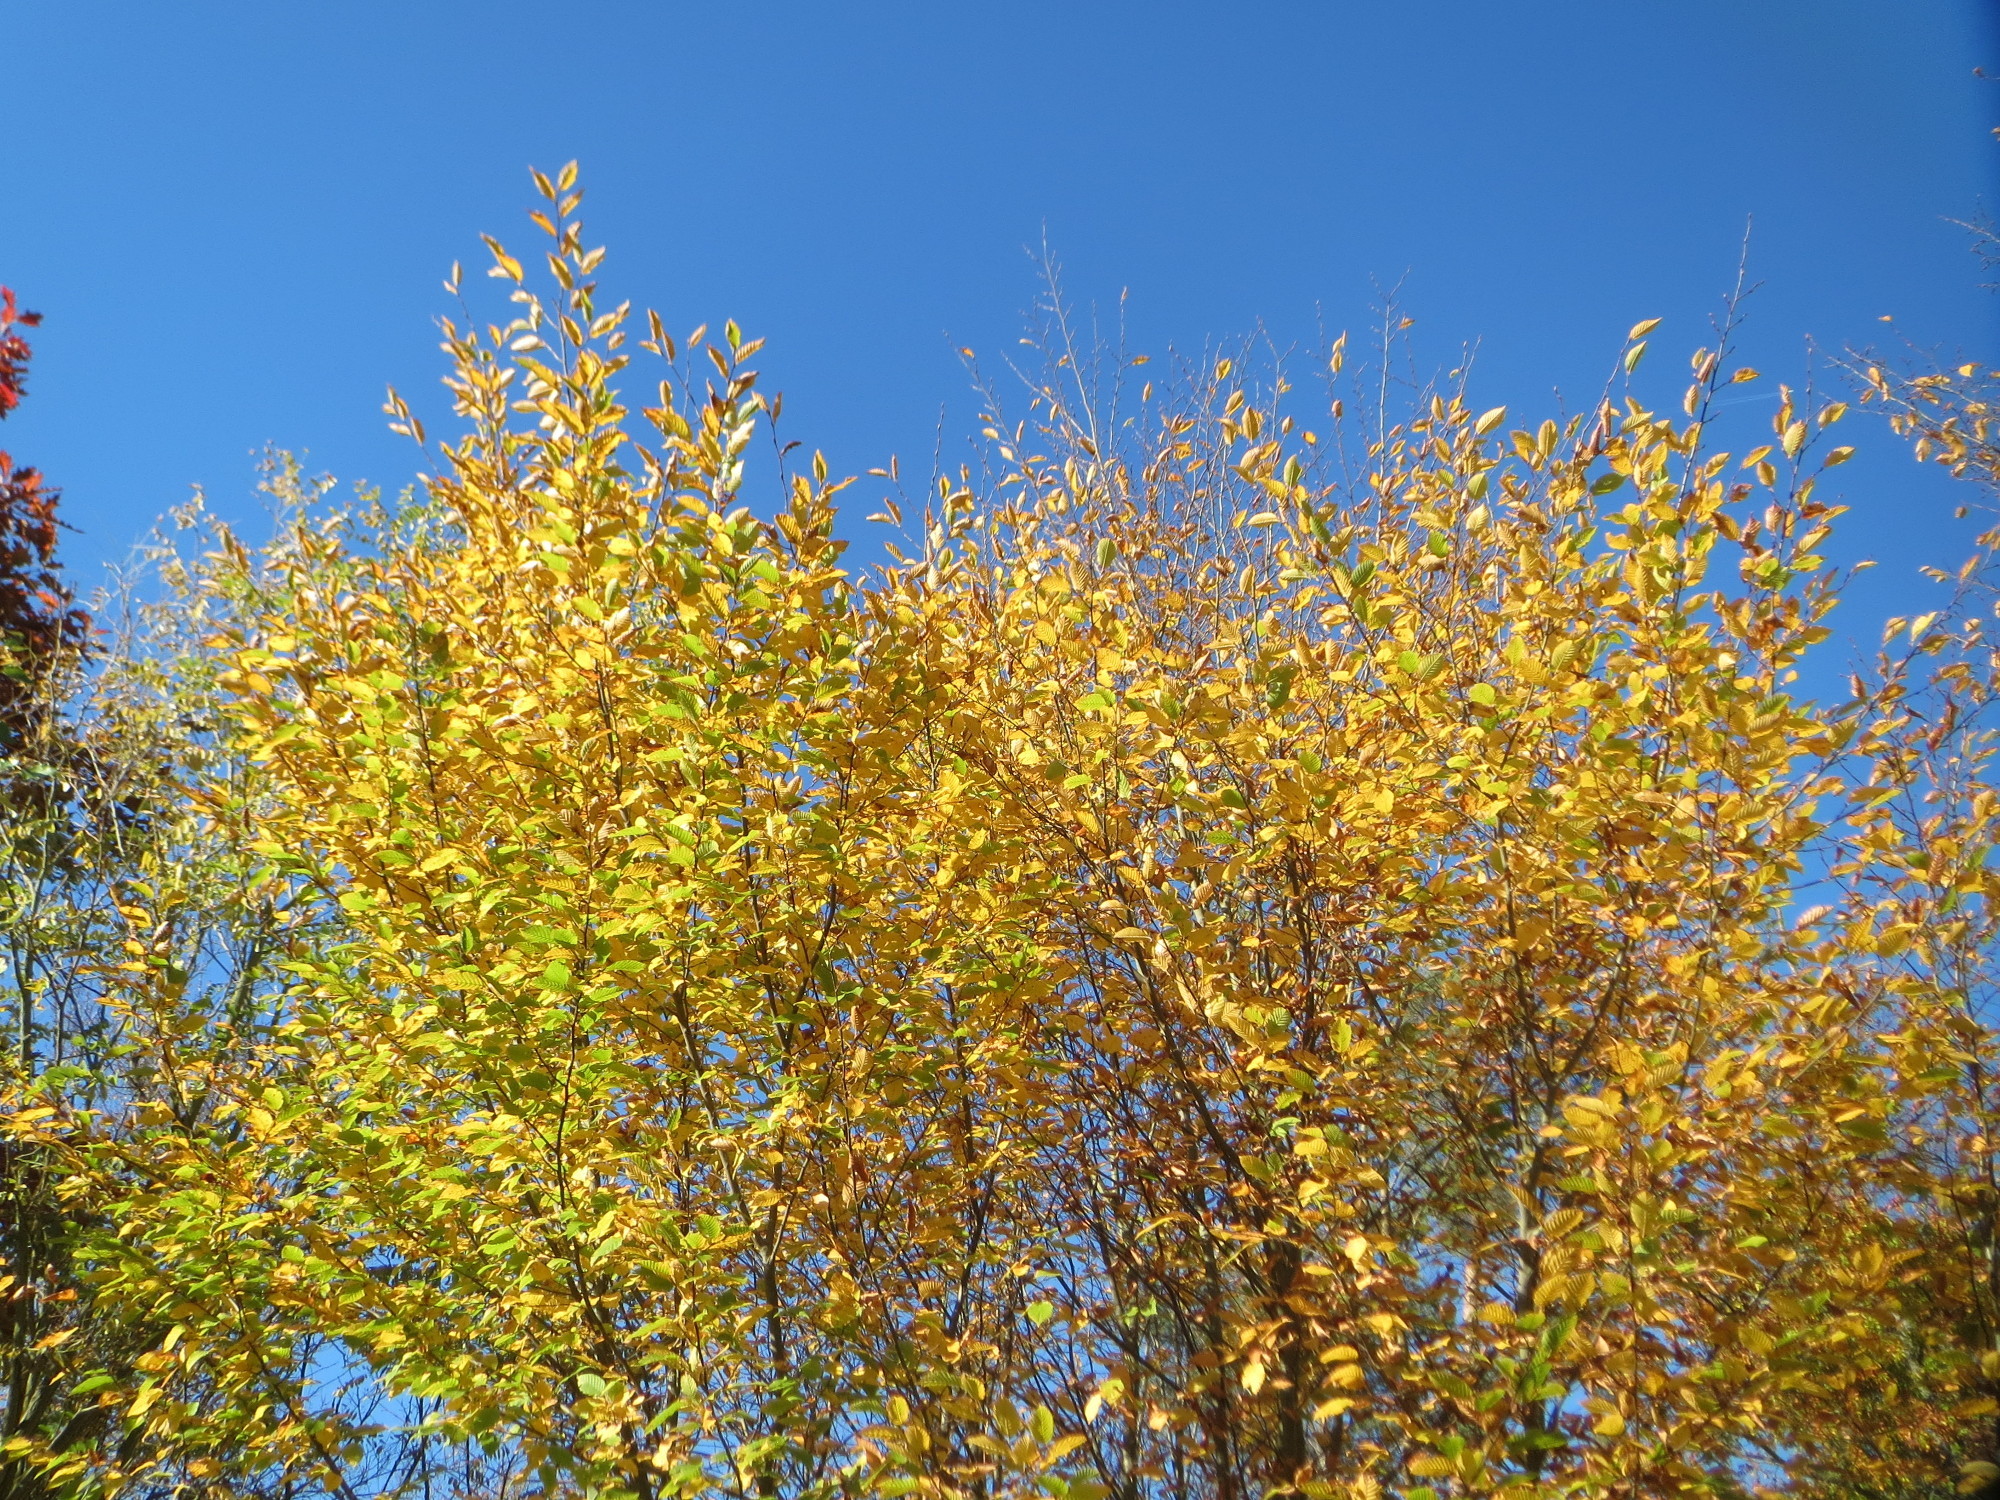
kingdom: Plantae
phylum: Tracheophyta
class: Magnoliopsida
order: Fagales
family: Betulaceae
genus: Carpinus
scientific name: Carpinus betulus
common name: Hornbeam
